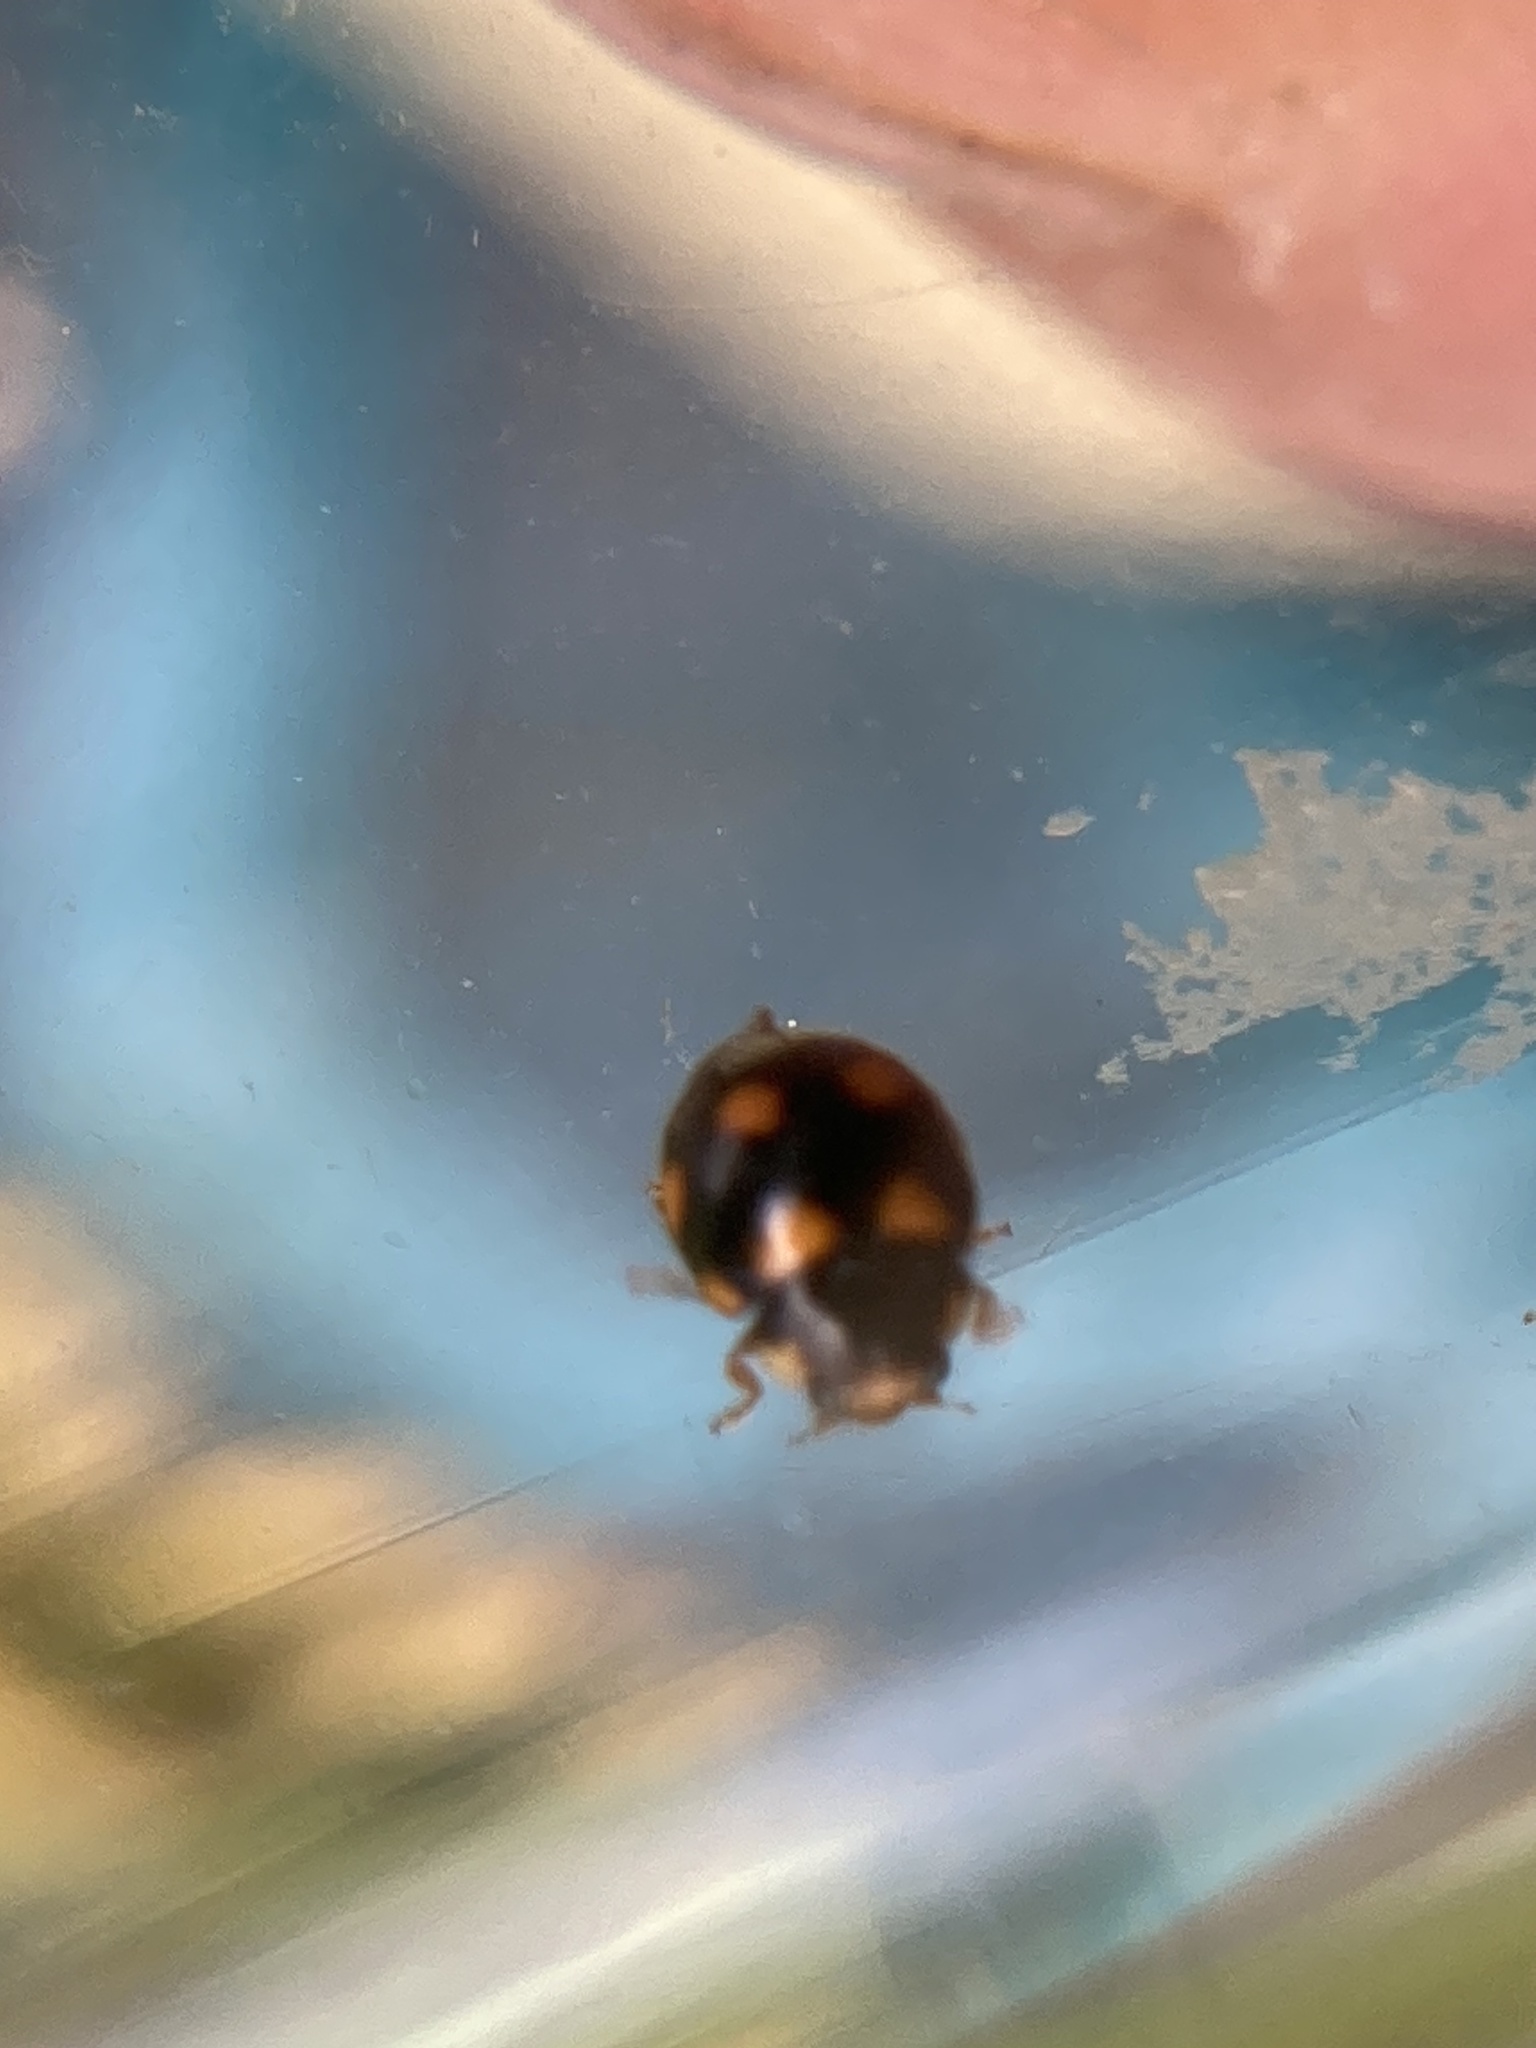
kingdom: Animalia
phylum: Arthropoda
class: Insecta
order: Coleoptera
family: Coccinellidae
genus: Brachiacantha
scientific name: Brachiacantha ursina
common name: Ursine spurleg lady beetle
